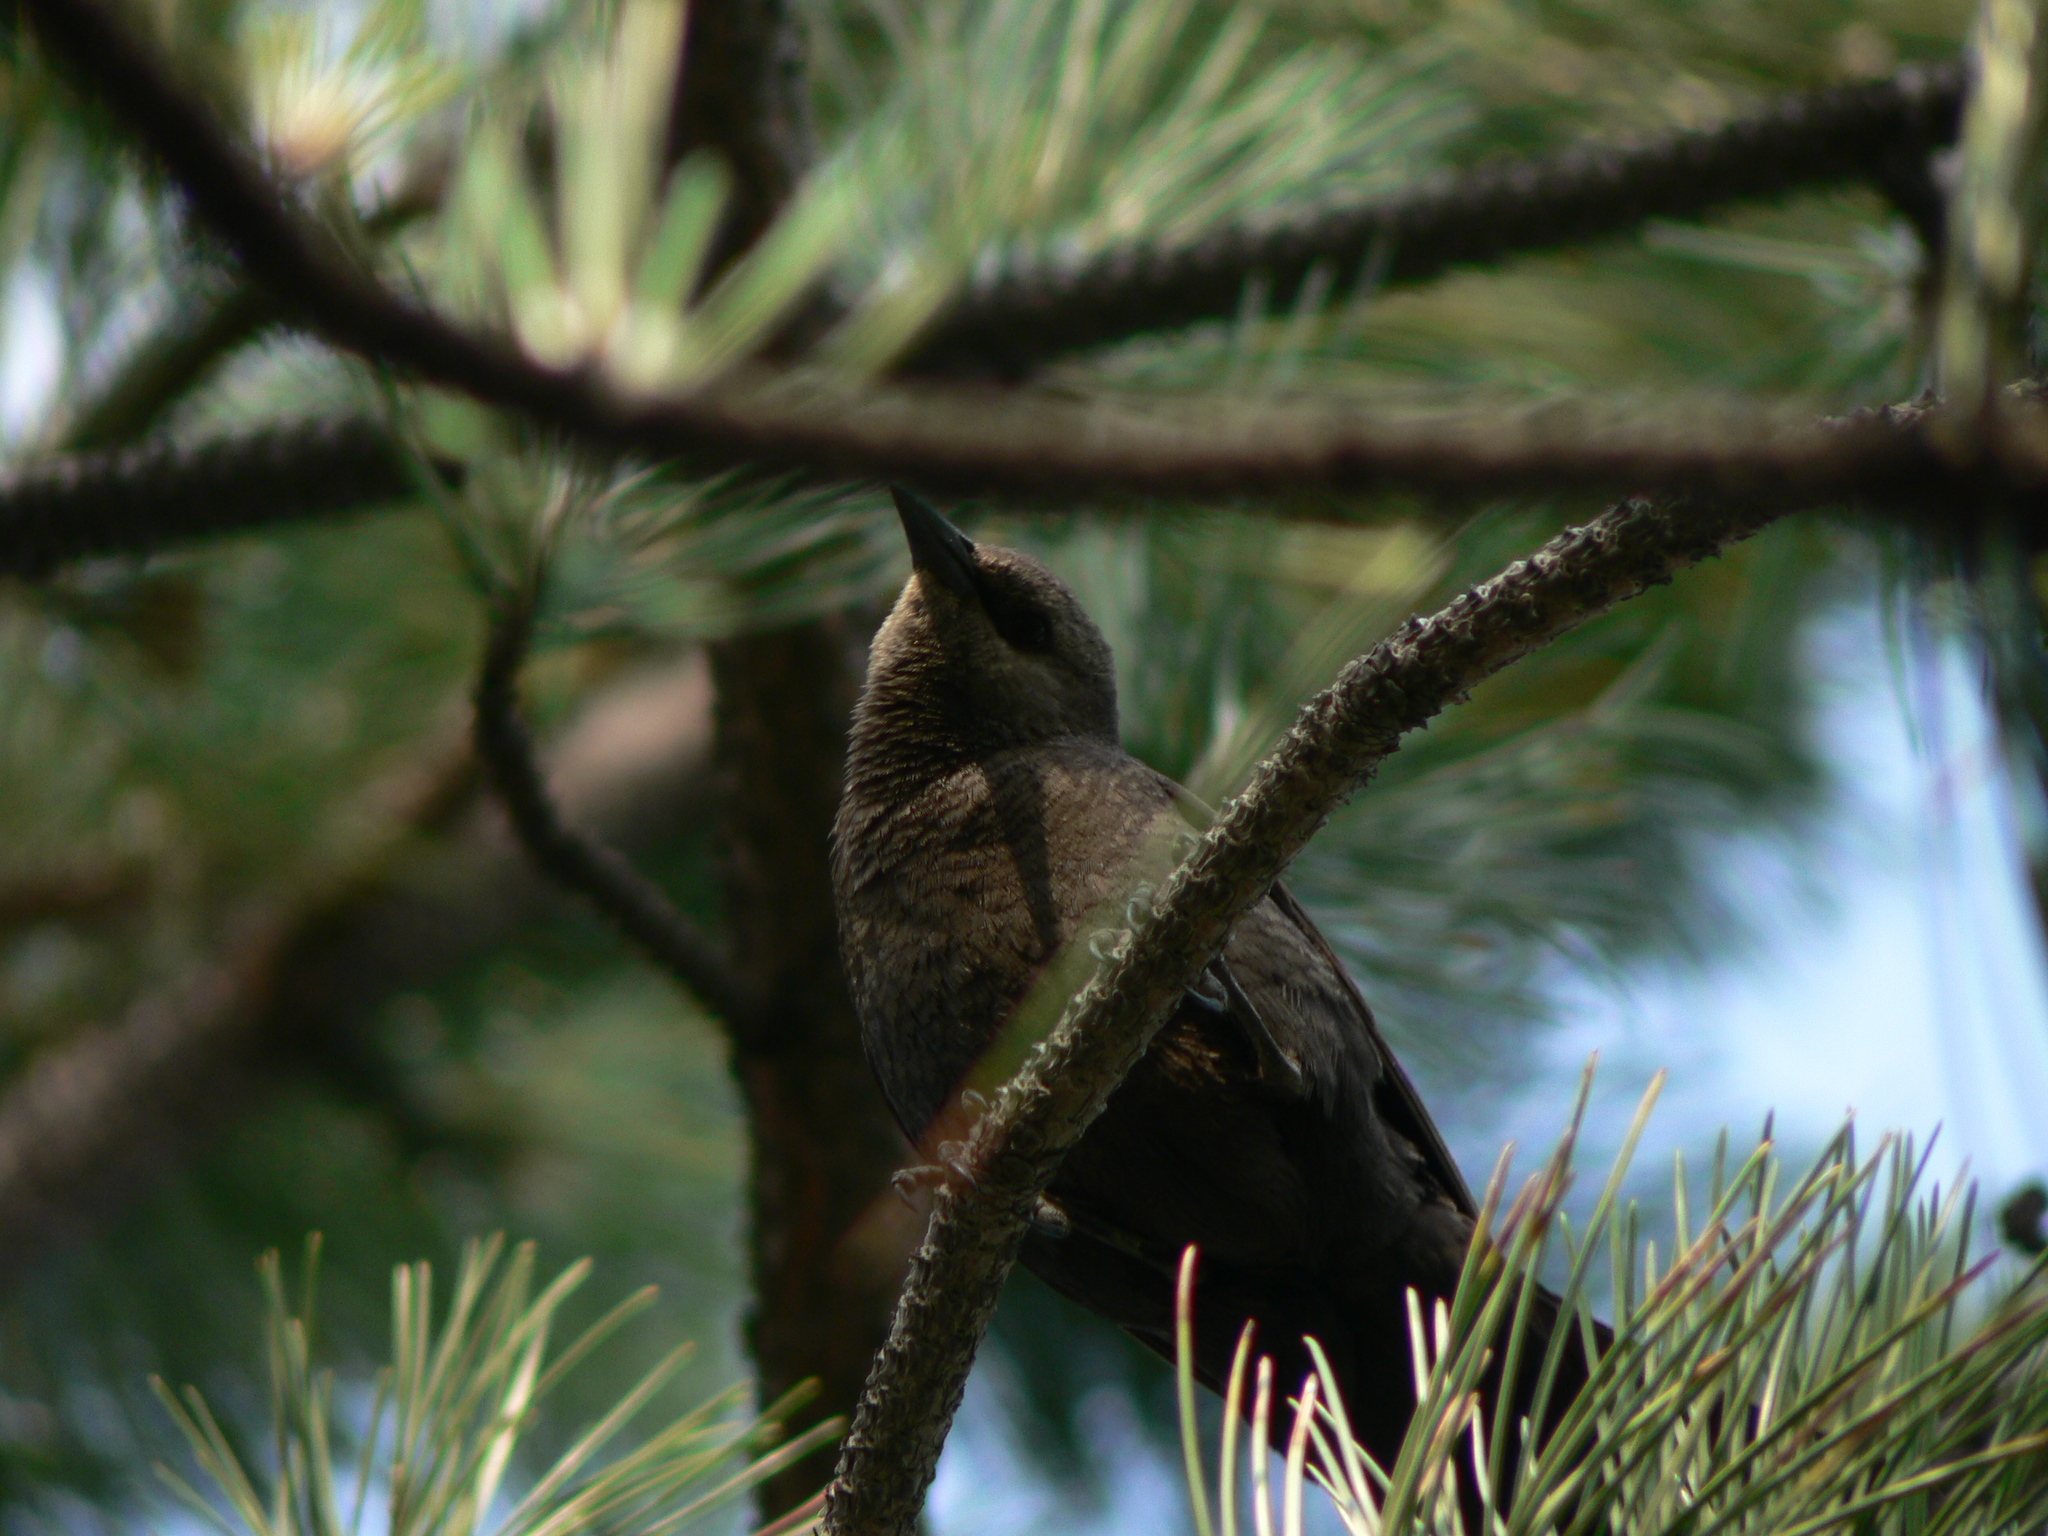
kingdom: Animalia
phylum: Chordata
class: Aves
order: Passeriformes
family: Icteridae
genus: Euphagus
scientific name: Euphagus cyanocephalus
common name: Brewer's blackbird
